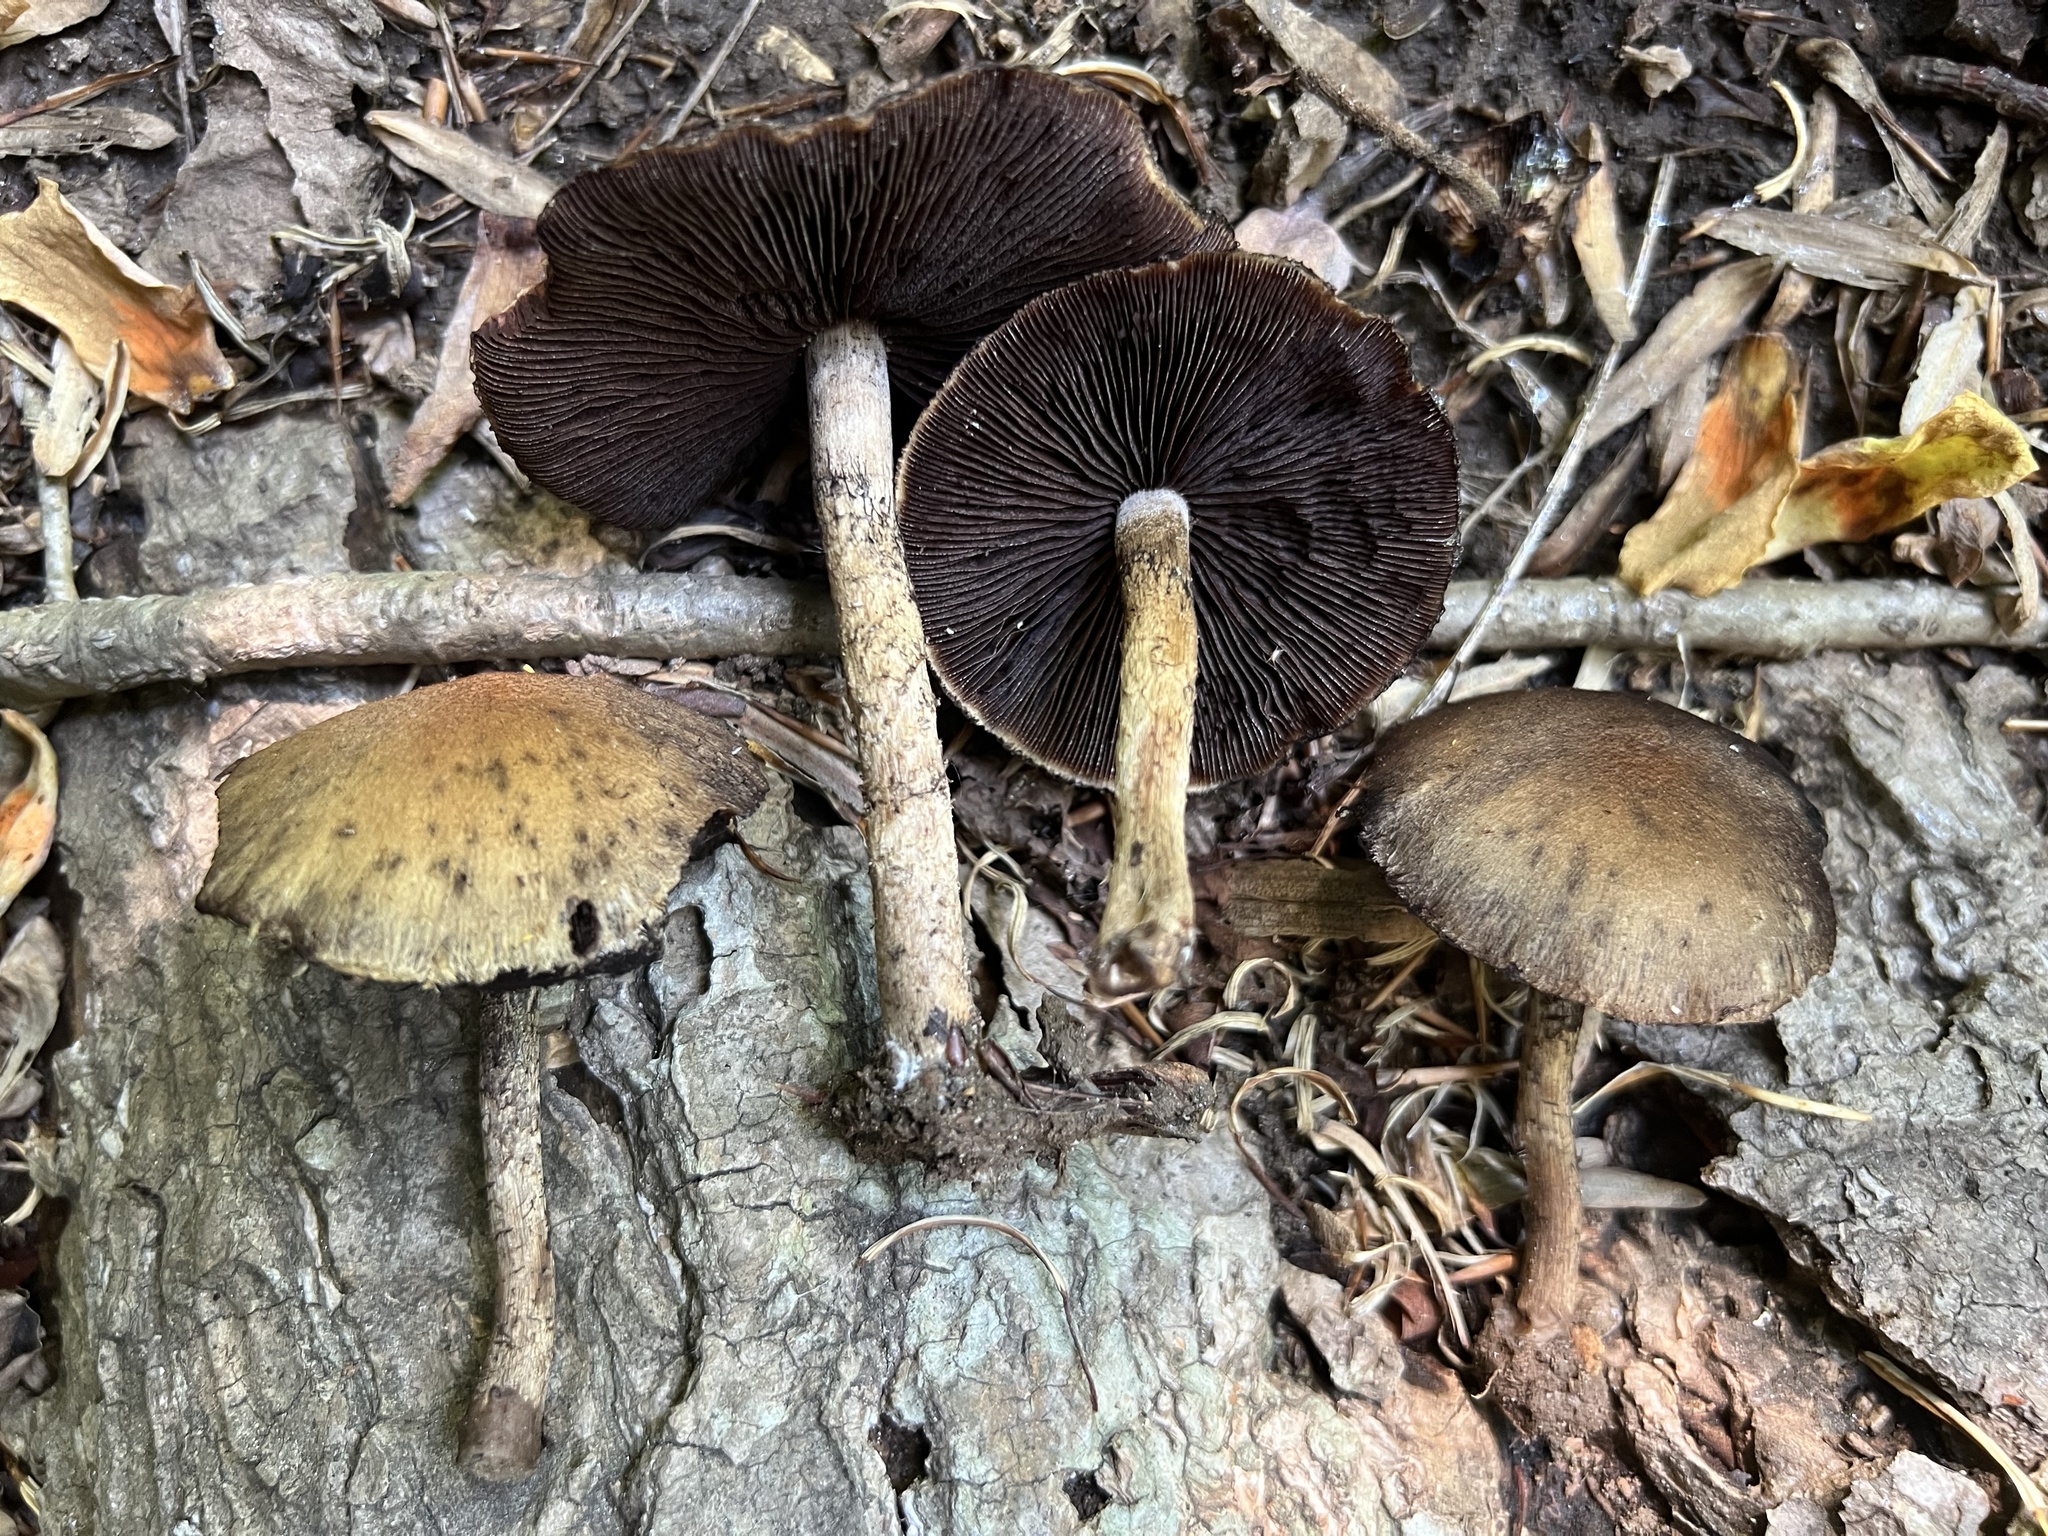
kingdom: Fungi
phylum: Basidiomycota
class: Agaricomycetes
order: Agaricales
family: Psathyrellaceae
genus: Lacrymaria
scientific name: Lacrymaria lacrymabunda
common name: Weeping widow
